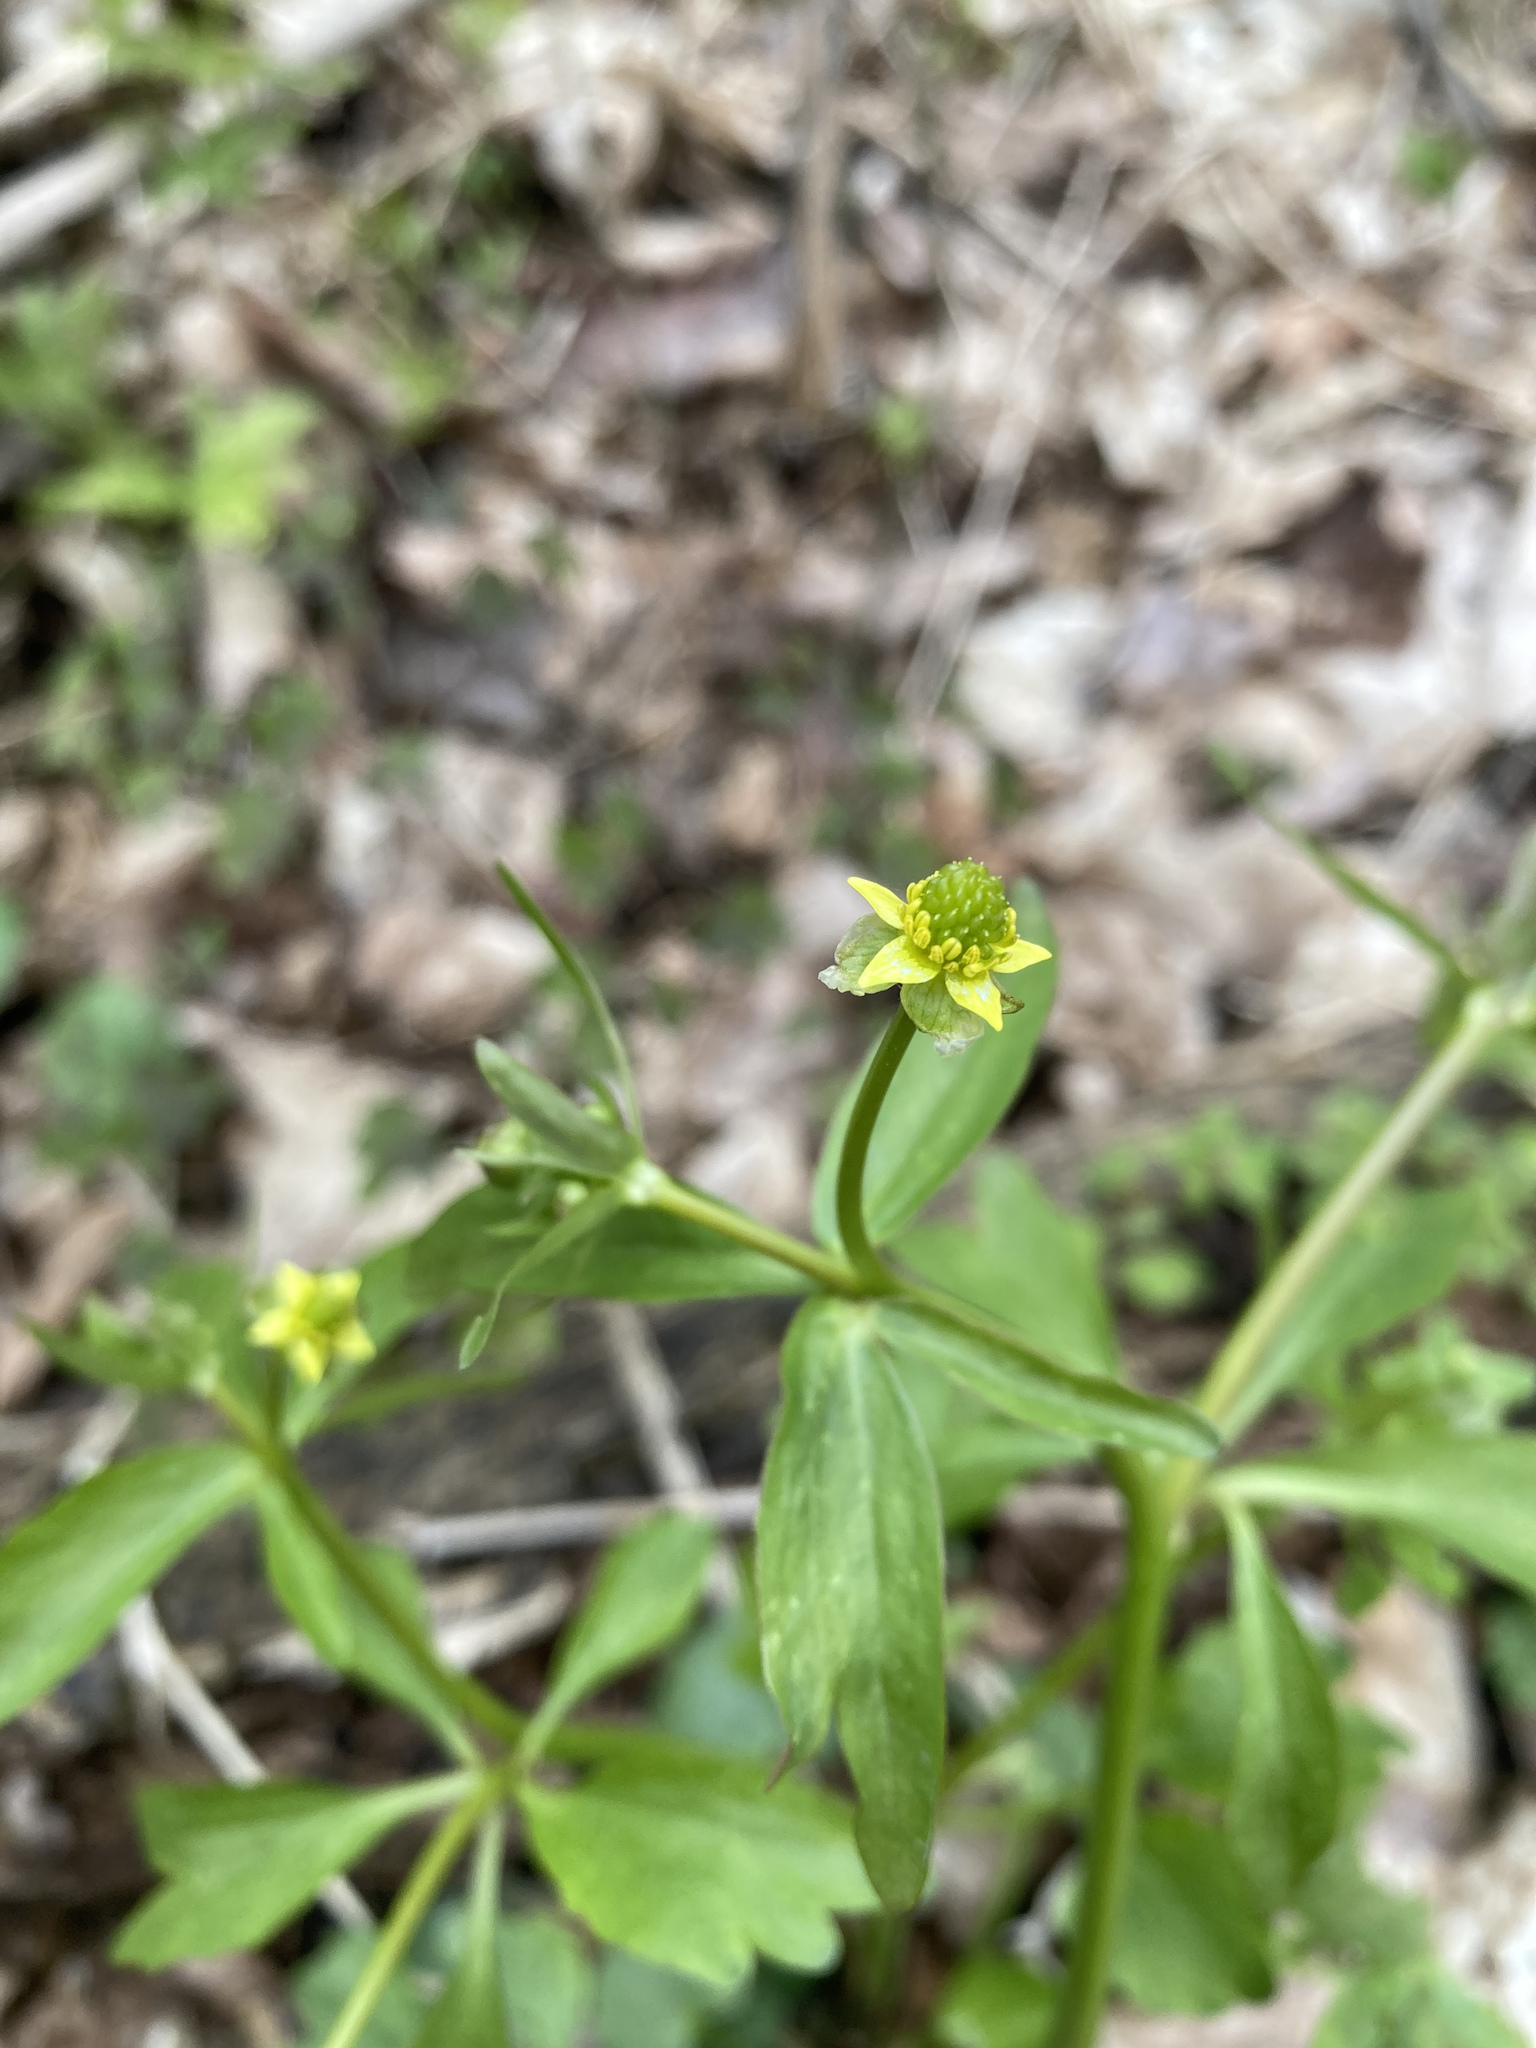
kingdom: Plantae
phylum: Tracheophyta
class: Magnoliopsida
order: Ranunculales
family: Ranunculaceae
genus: Ranunculus
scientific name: Ranunculus abortivus
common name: Early wood buttercup
